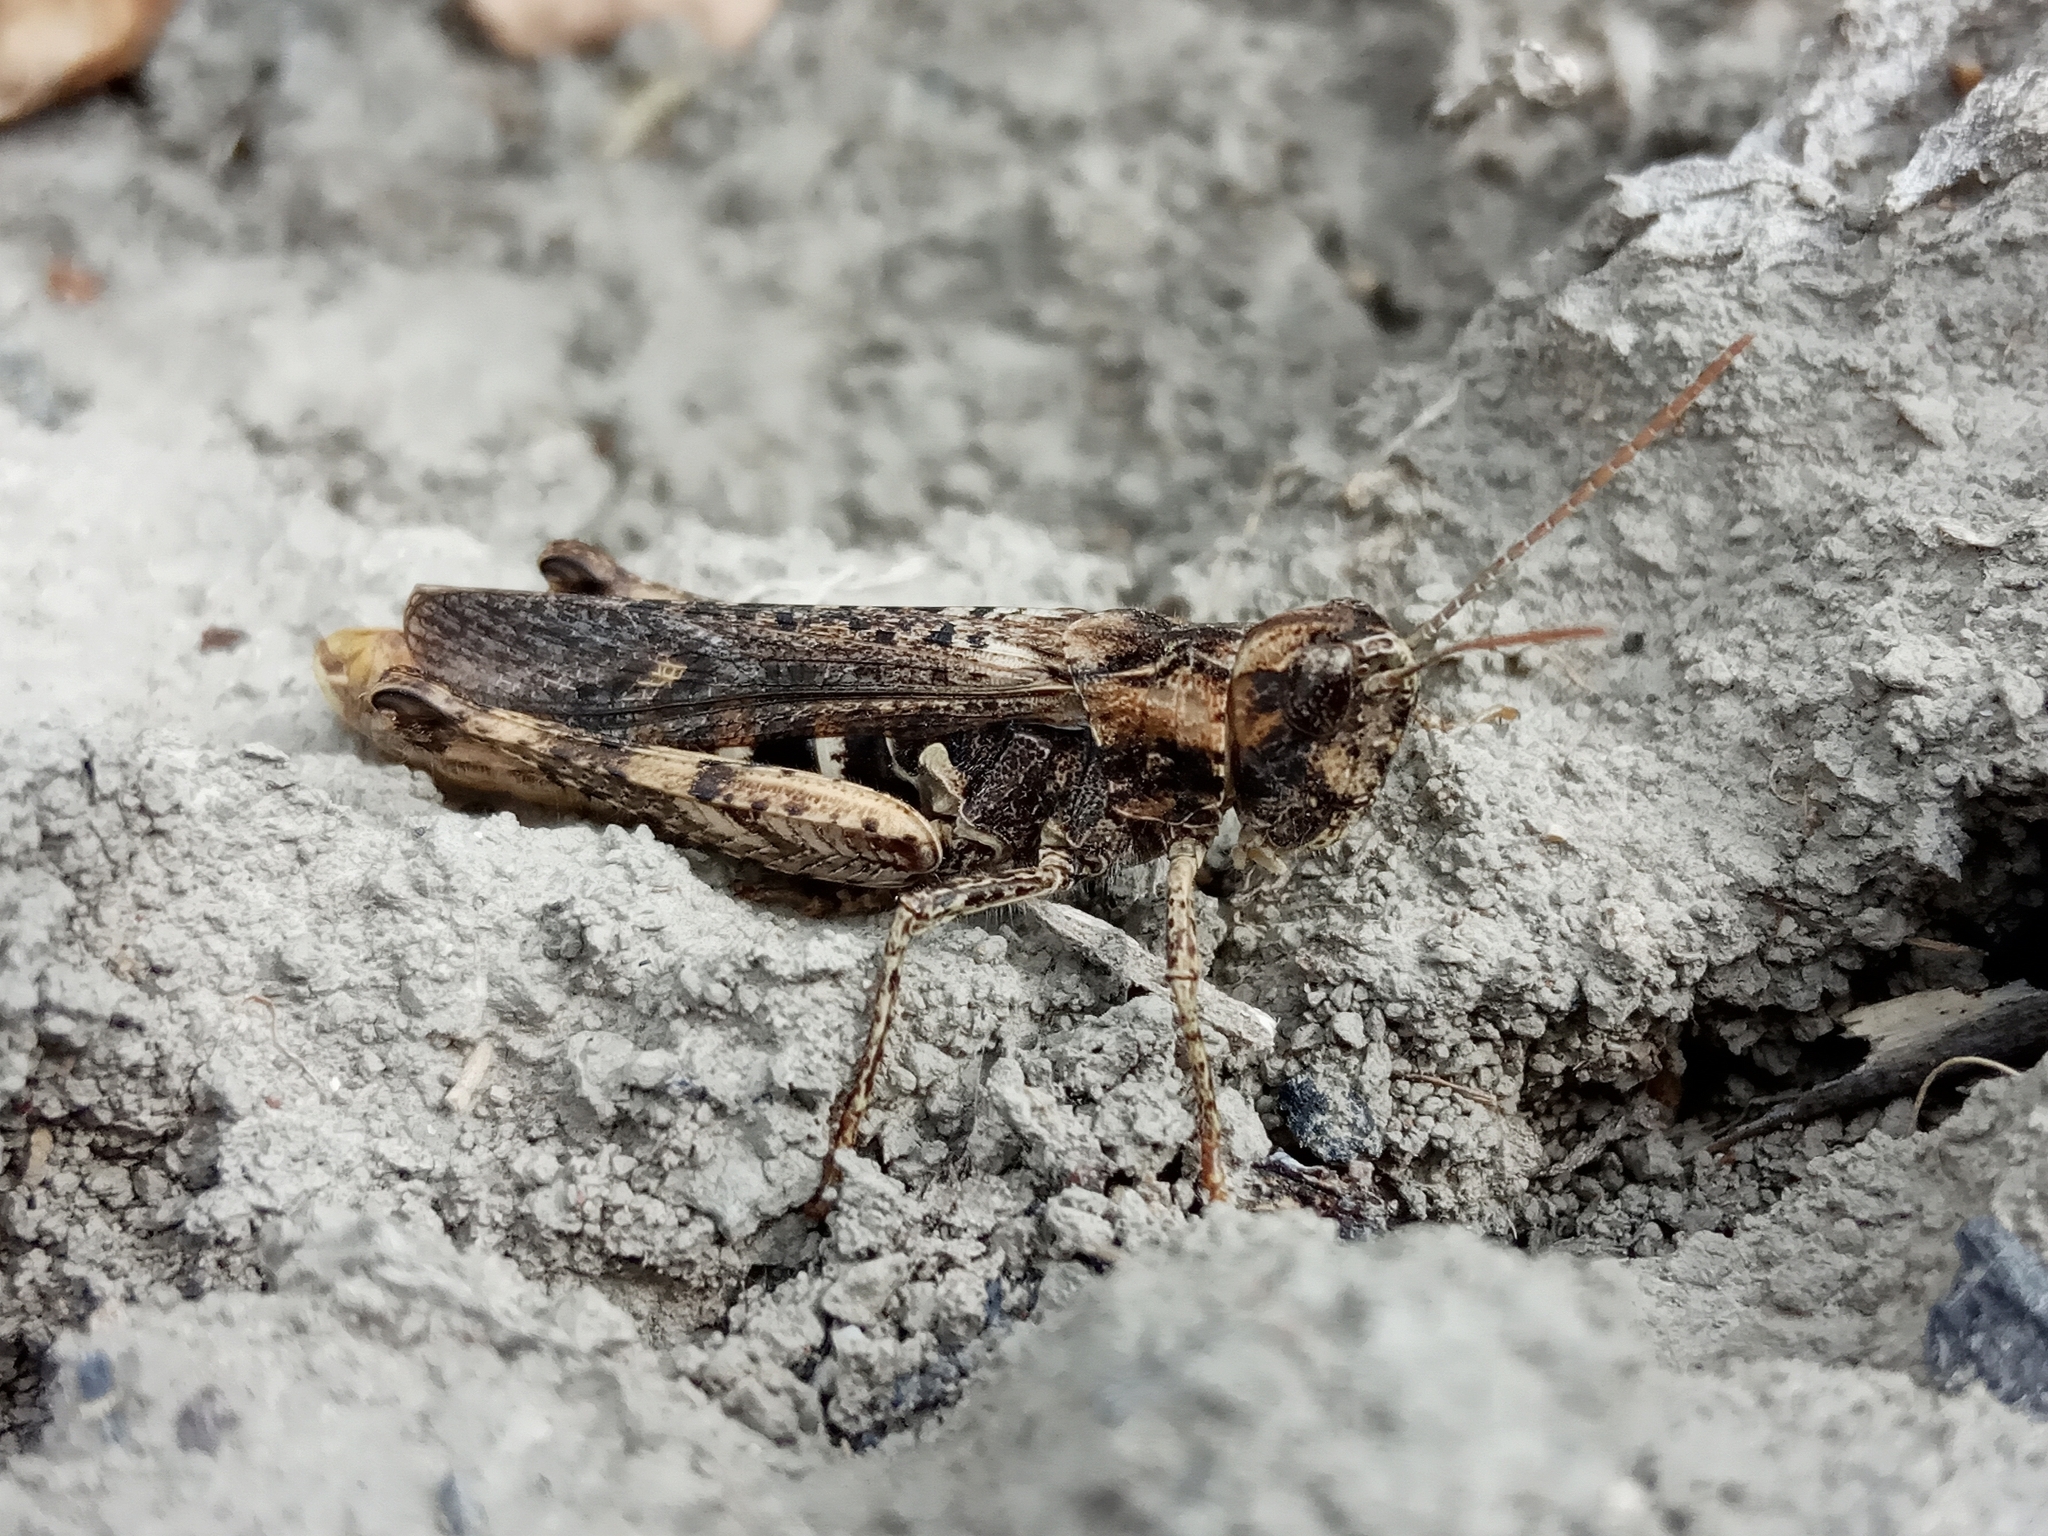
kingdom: Animalia
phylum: Arthropoda
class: Insecta
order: Orthoptera
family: Acrididae
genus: Glyptobothrus
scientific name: Glyptobothrus
